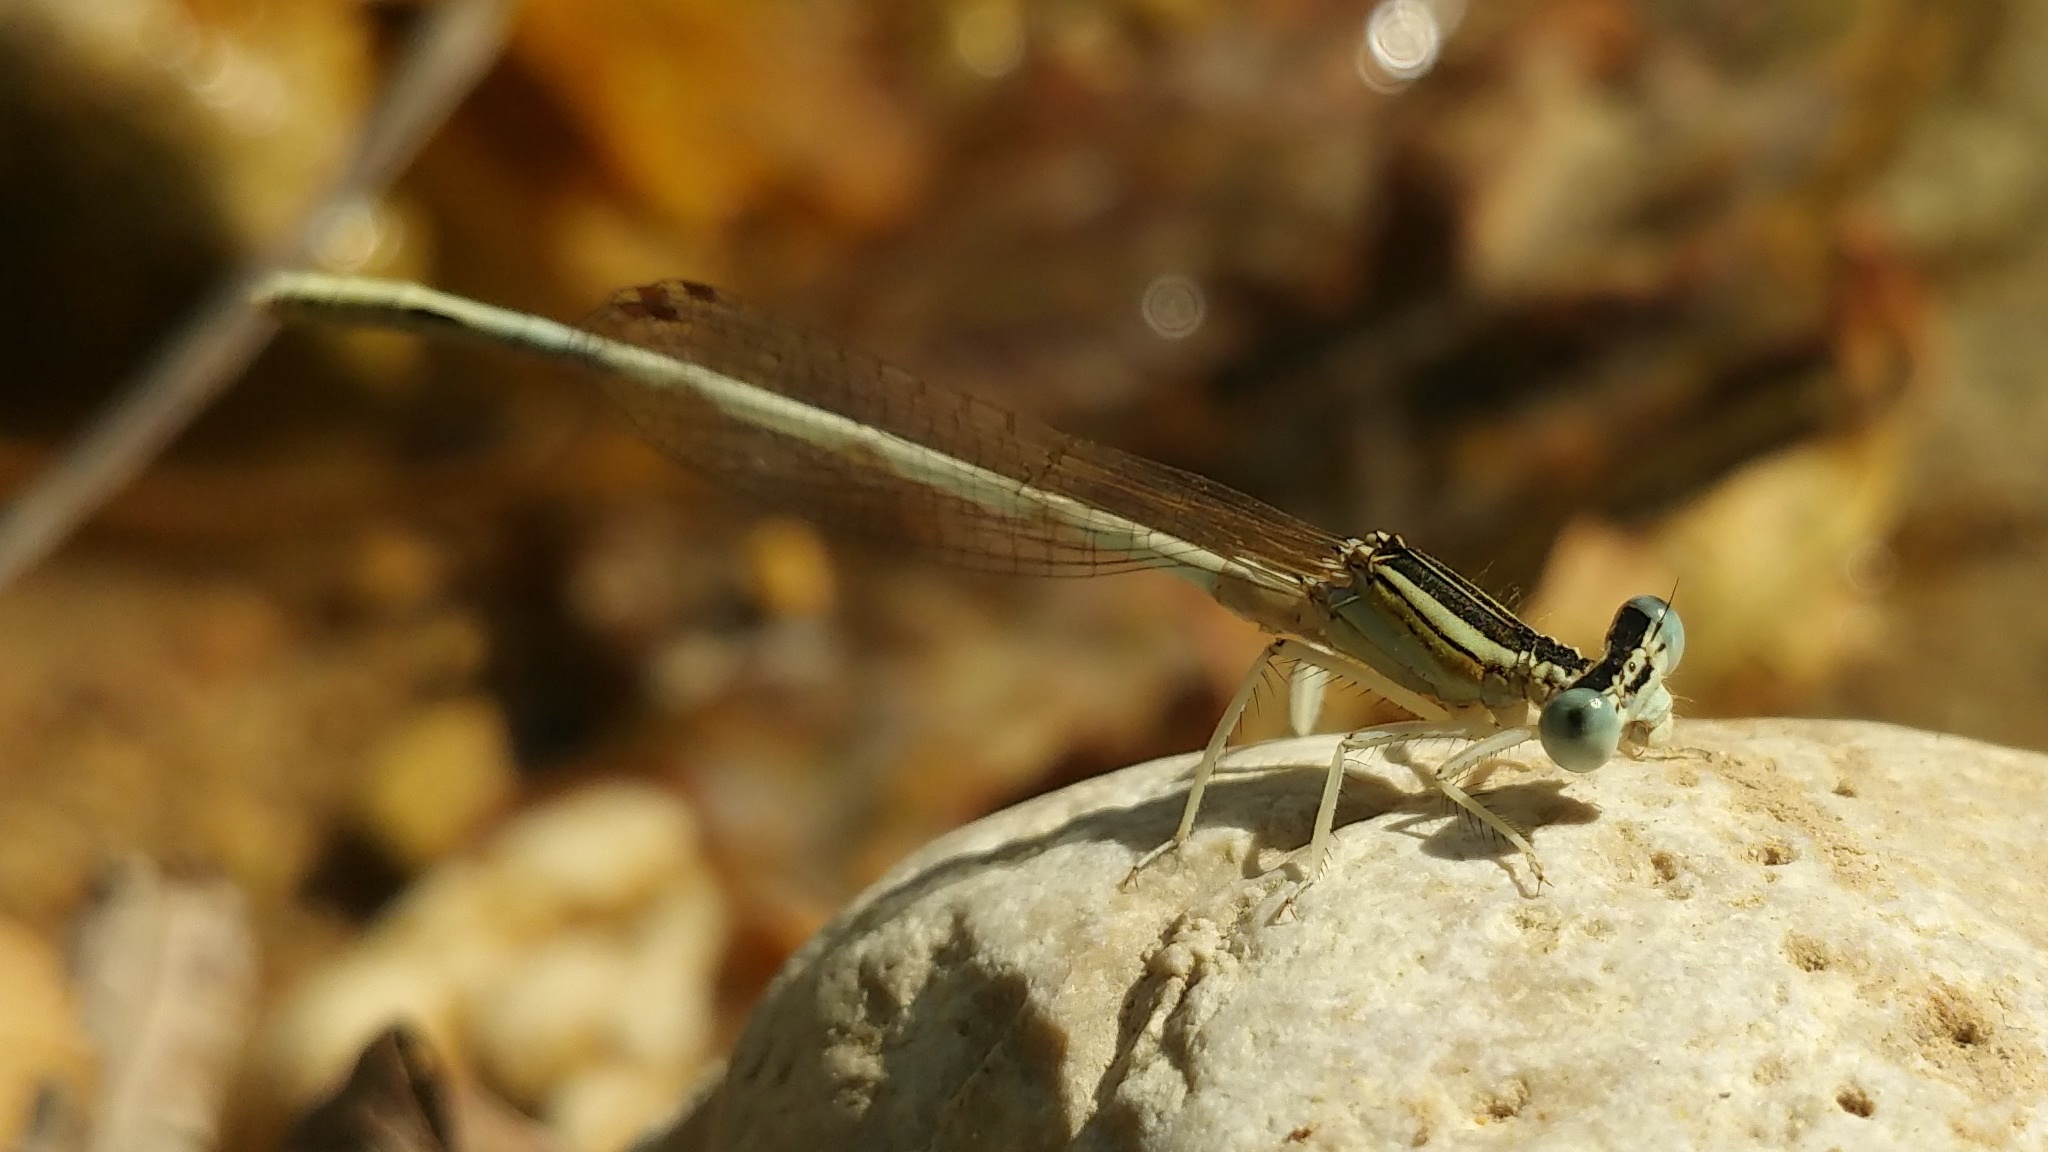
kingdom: Animalia
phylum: Arthropoda
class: Insecta
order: Odonata
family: Platycnemididae
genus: Platycnemis
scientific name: Platycnemis dealbata
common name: Ivory featherleg
